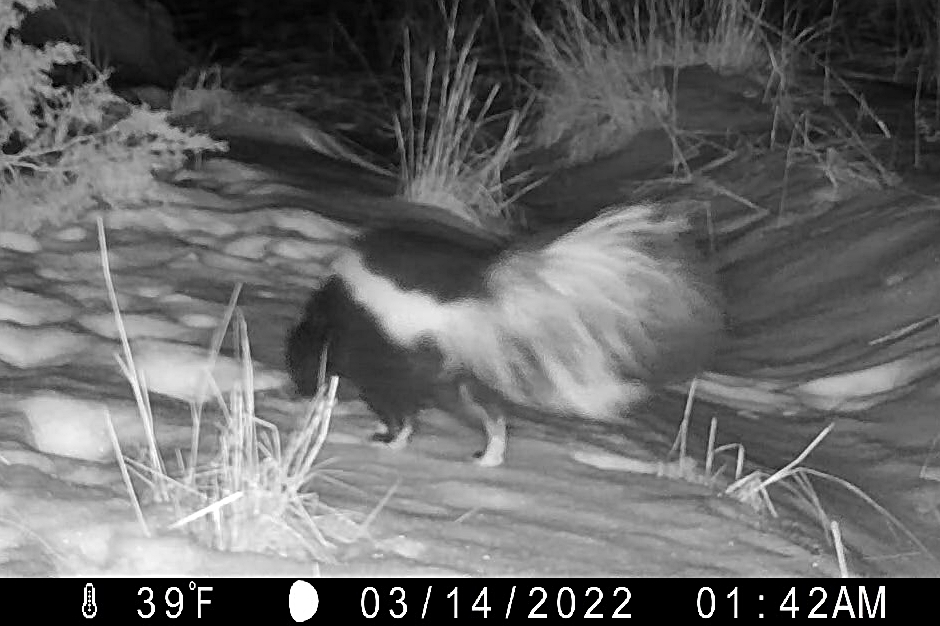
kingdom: Animalia
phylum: Chordata
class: Mammalia
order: Carnivora
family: Mephitidae
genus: Mephitis
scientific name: Mephitis mephitis
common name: Striped skunk
